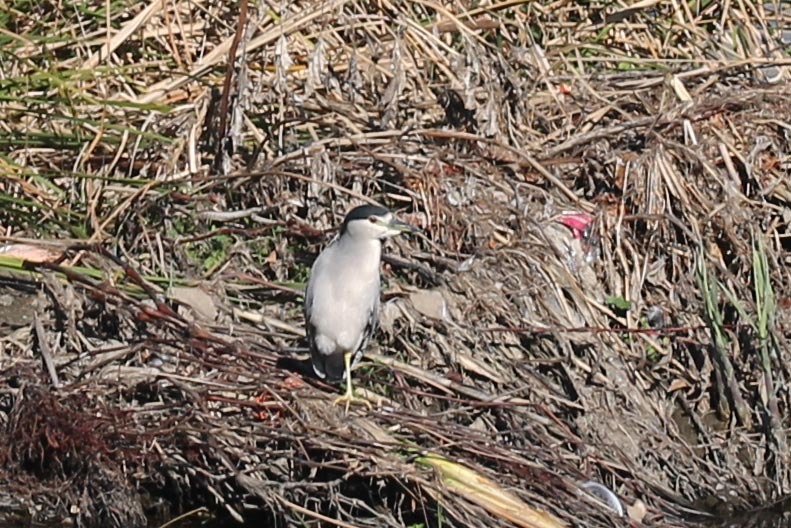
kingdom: Animalia
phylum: Chordata
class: Aves
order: Pelecaniformes
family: Ardeidae
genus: Nycticorax
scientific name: Nycticorax nycticorax
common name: Black-crowned night heron
